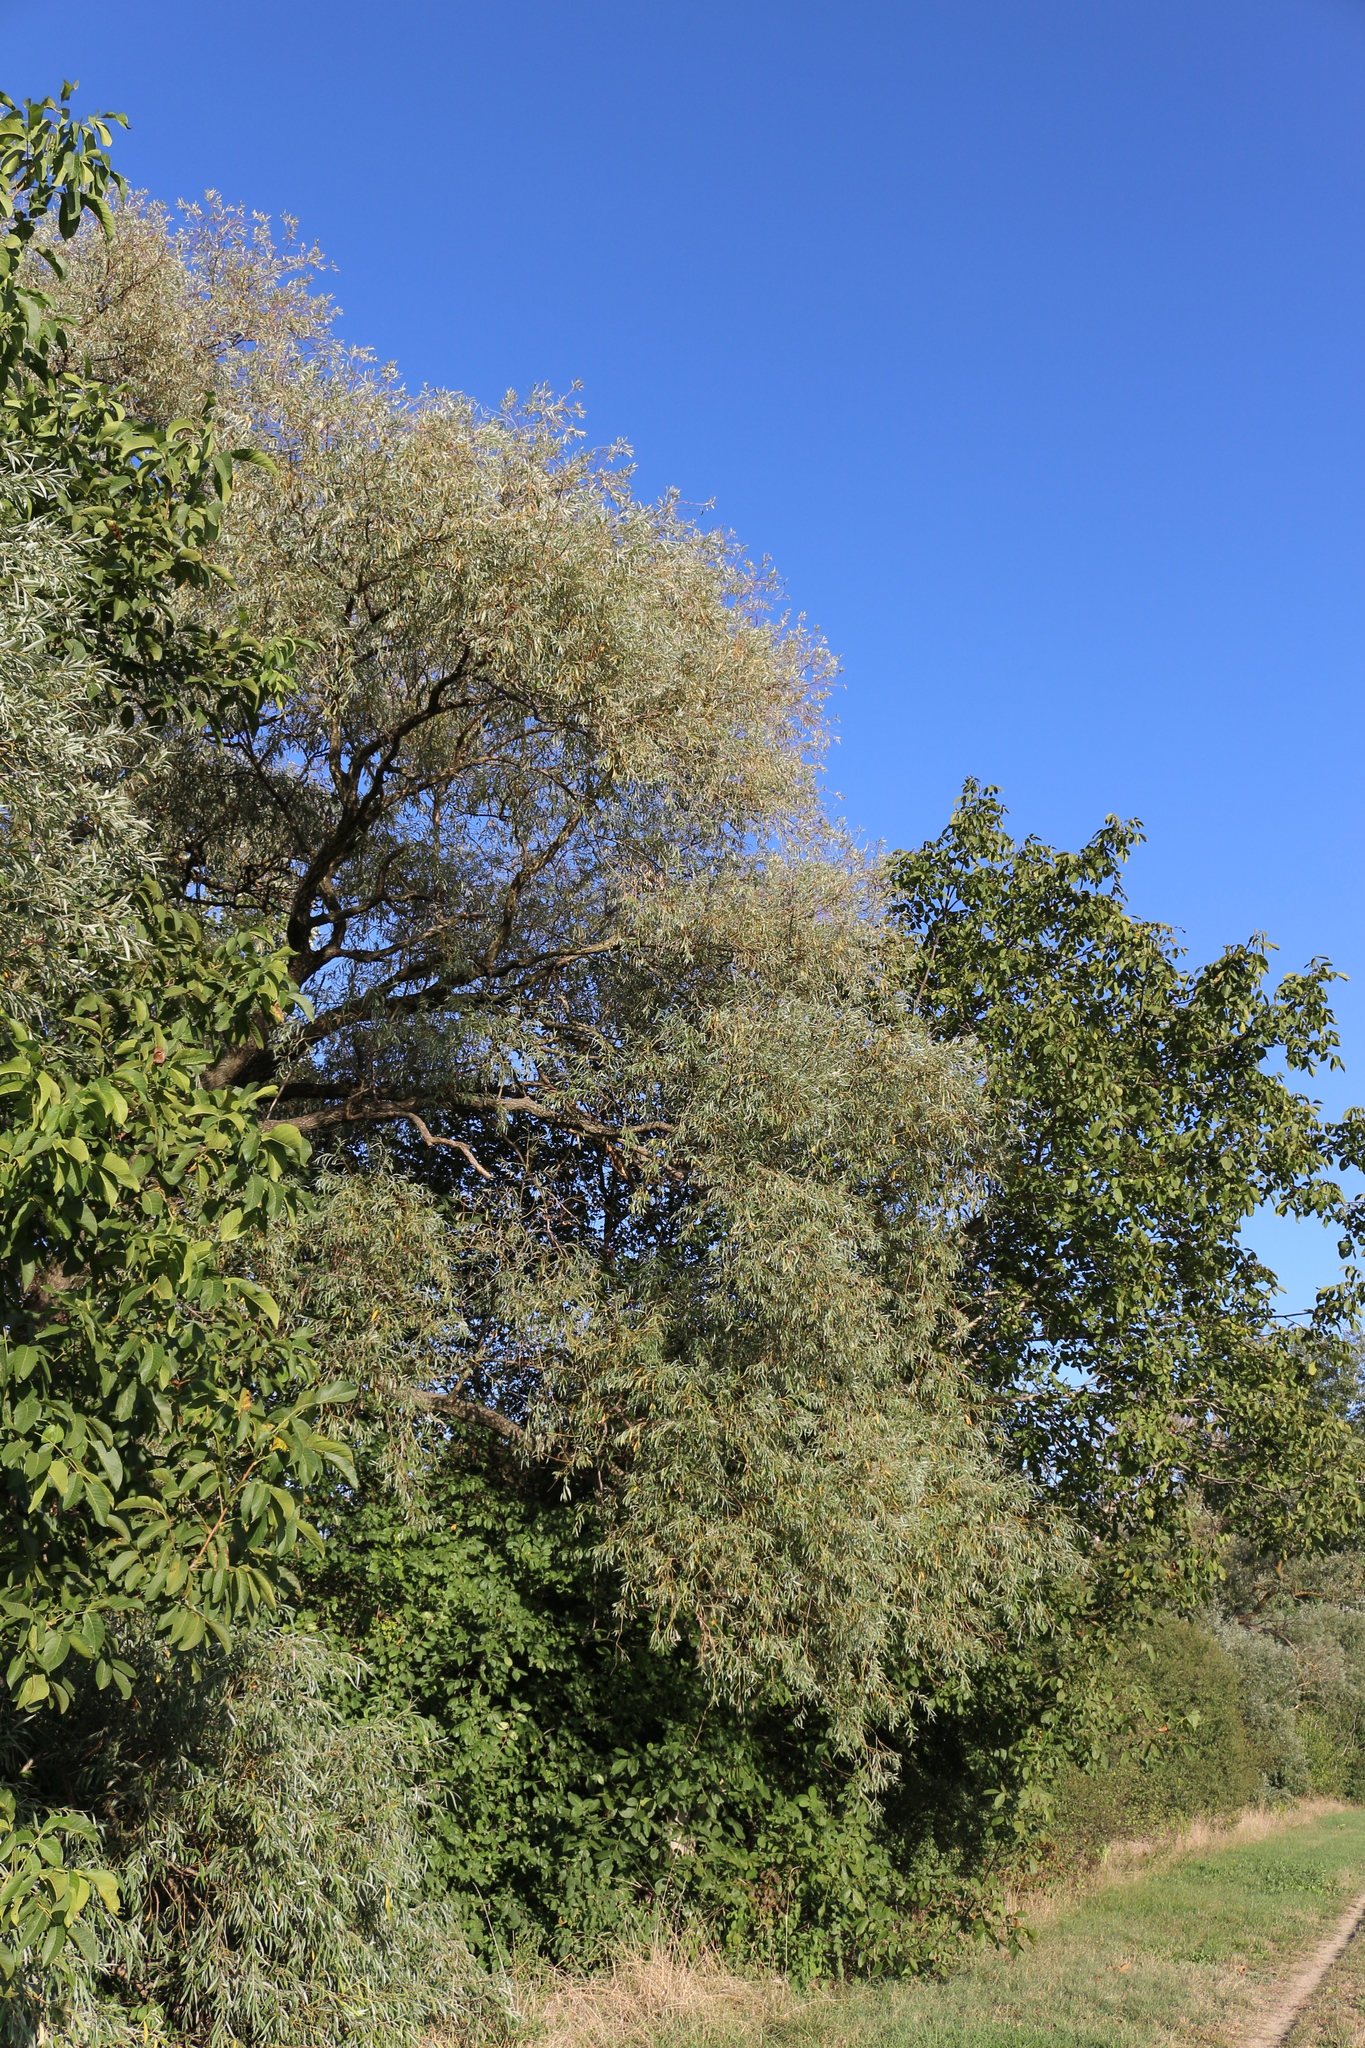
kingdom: Plantae
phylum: Tracheophyta
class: Magnoliopsida
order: Malpighiales
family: Salicaceae
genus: Salix
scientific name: Salix alba
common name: White willow
